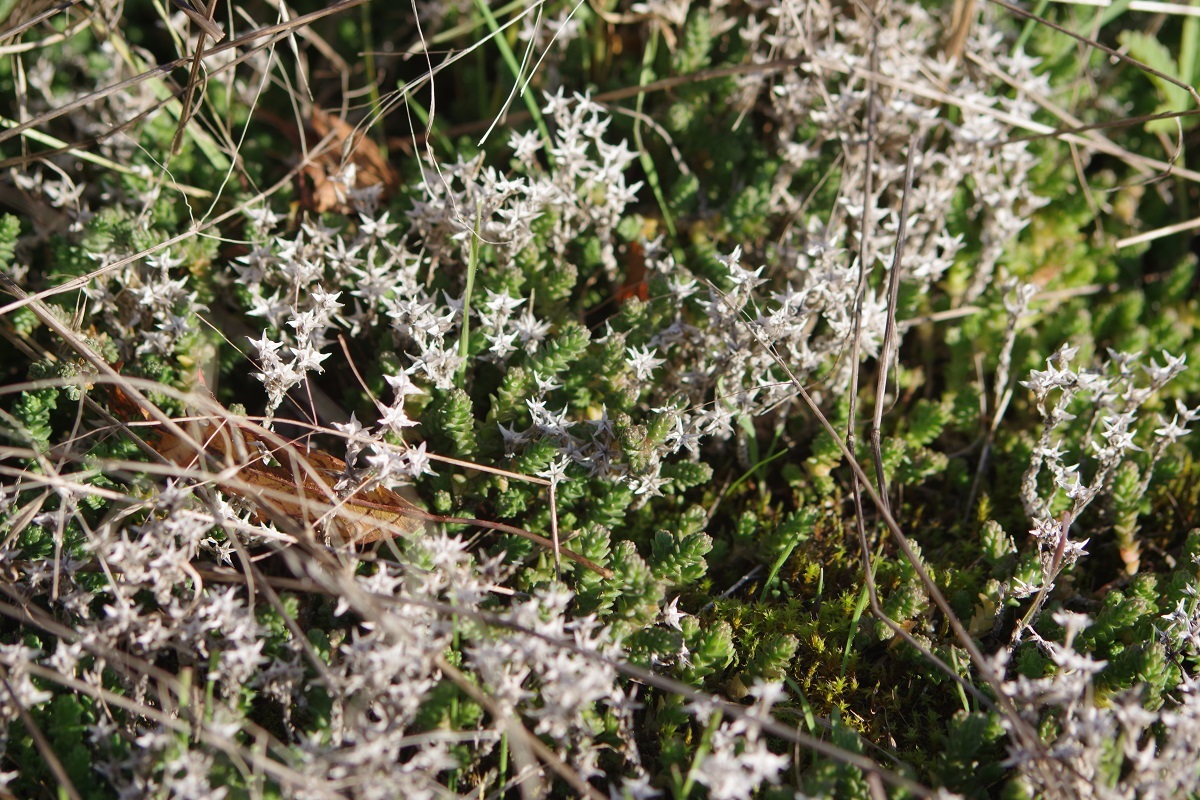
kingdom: Plantae
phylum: Tracheophyta
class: Magnoliopsida
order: Saxifragales
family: Crassulaceae
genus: Sedum
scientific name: Sedum acre
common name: Biting stonecrop
